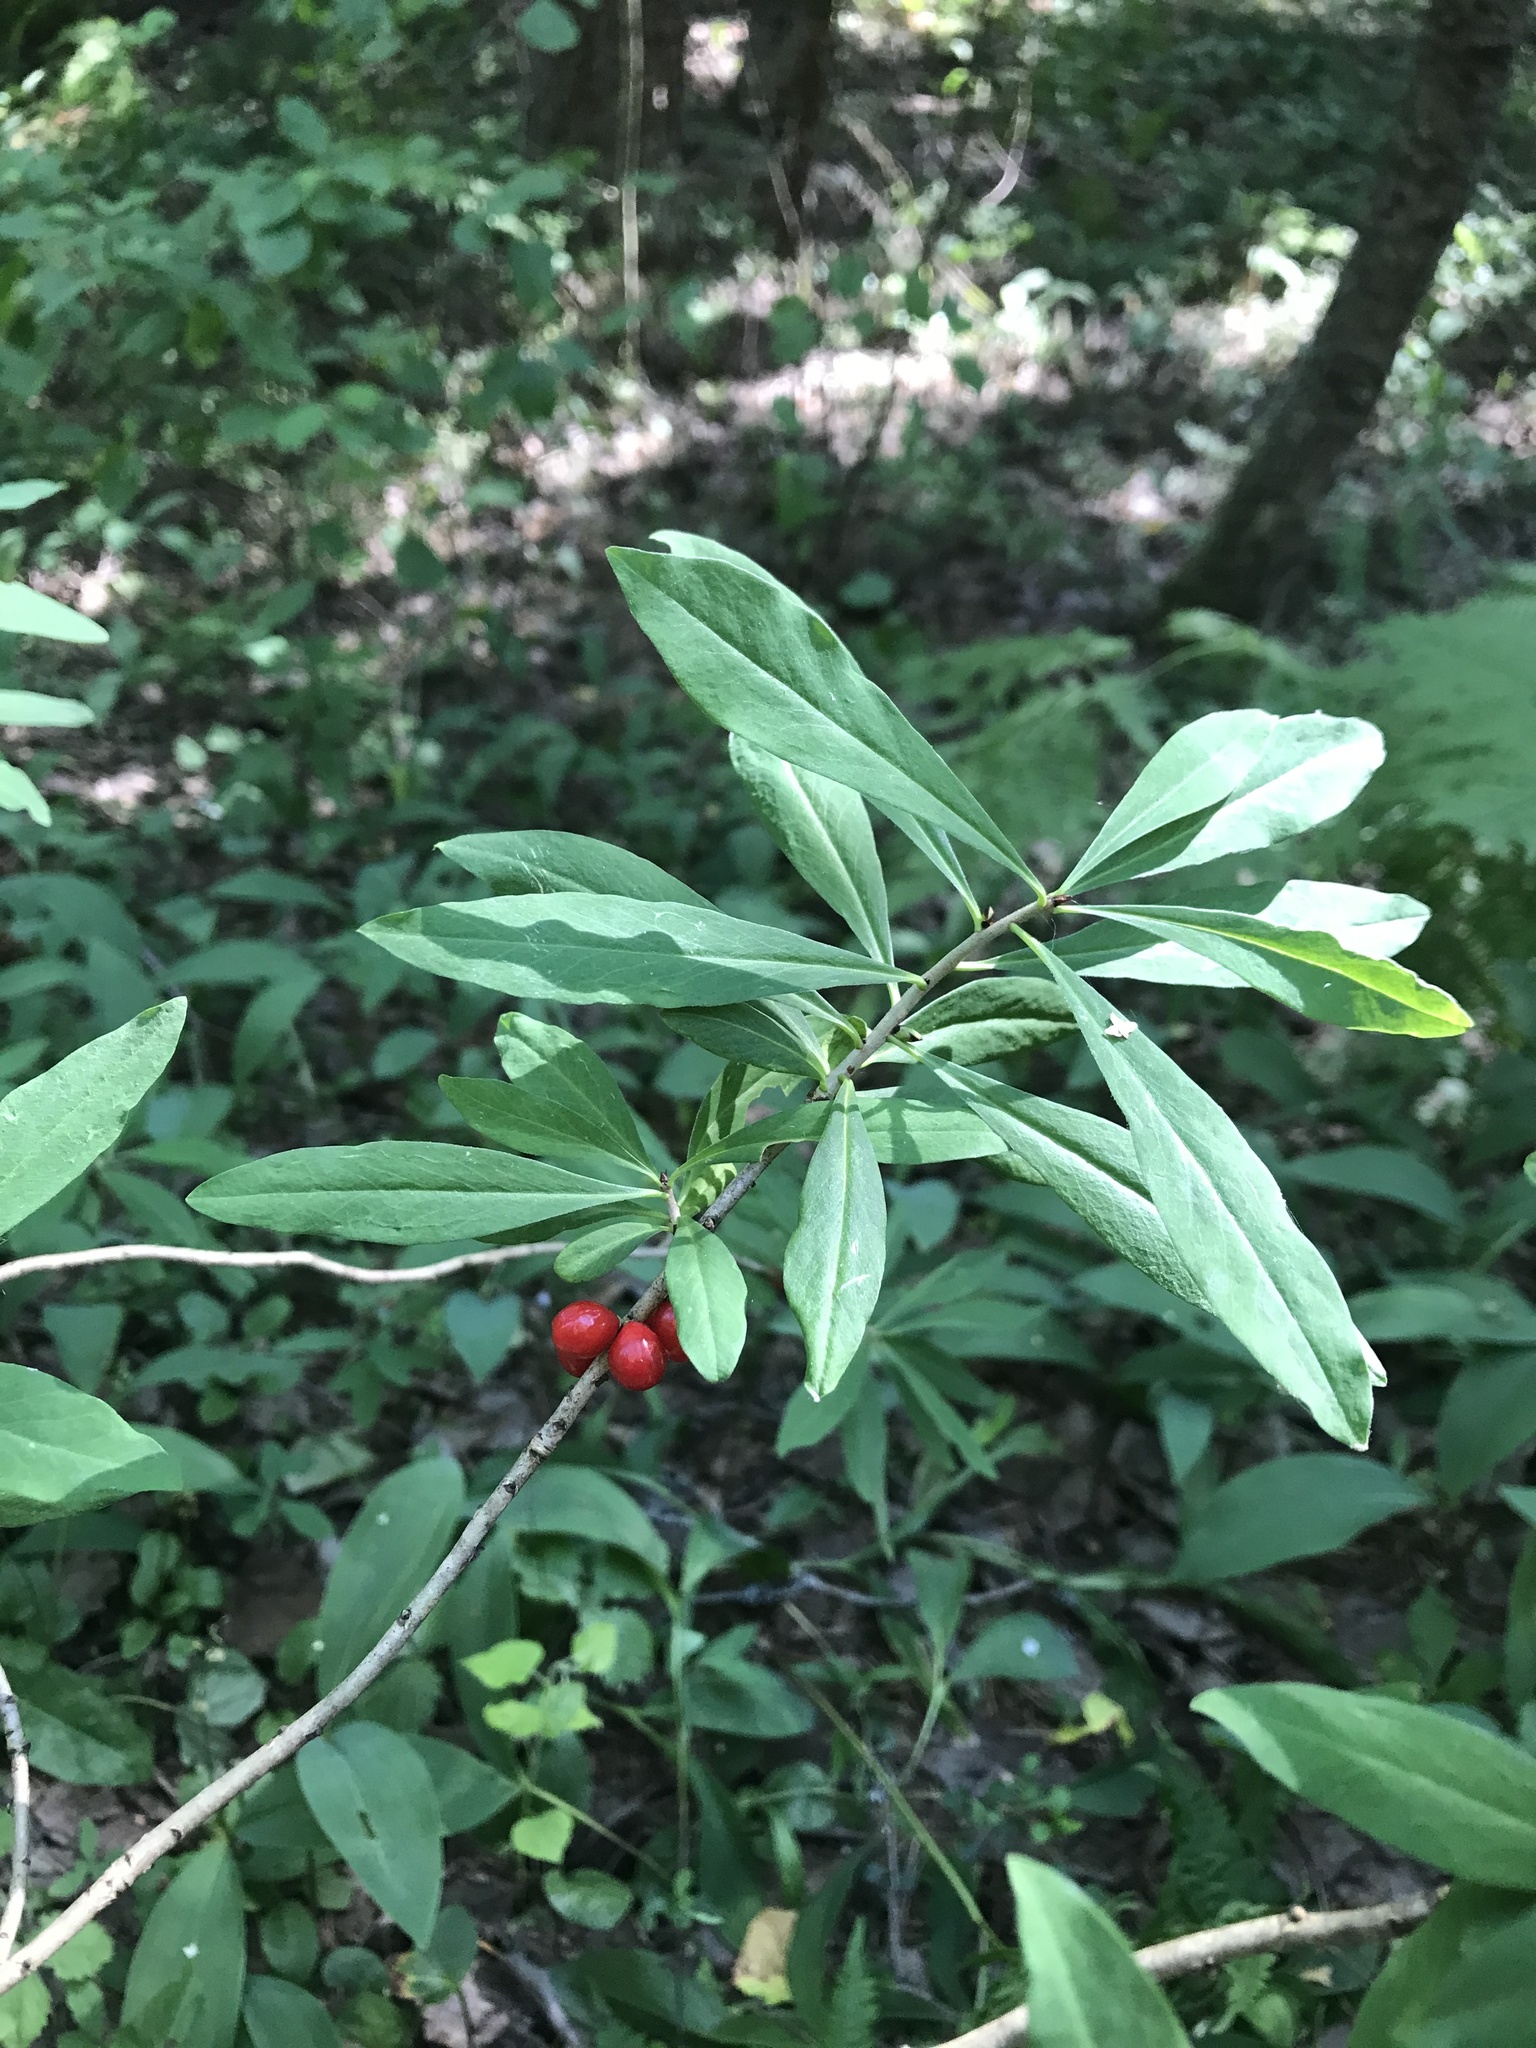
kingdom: Plantae
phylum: Tracheophyta
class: Magnoliopsida
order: Malvales
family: Thymelaeaceae
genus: Daphne
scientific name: Daphne mezereum
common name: Mezereon
